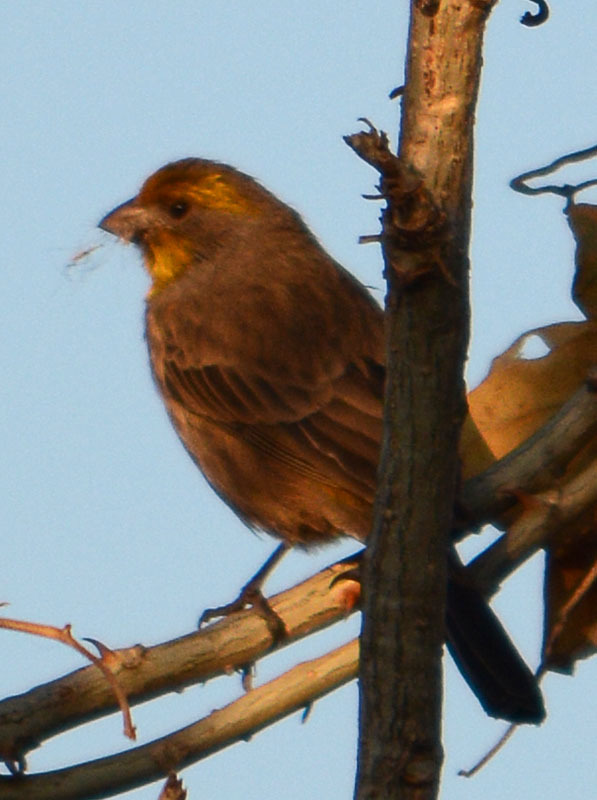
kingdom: Animalia
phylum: Chordata
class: Aves
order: Passeriformes
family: Fringillidae
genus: Haemorhous
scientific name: Haemorhous mexicanus
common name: House finch
